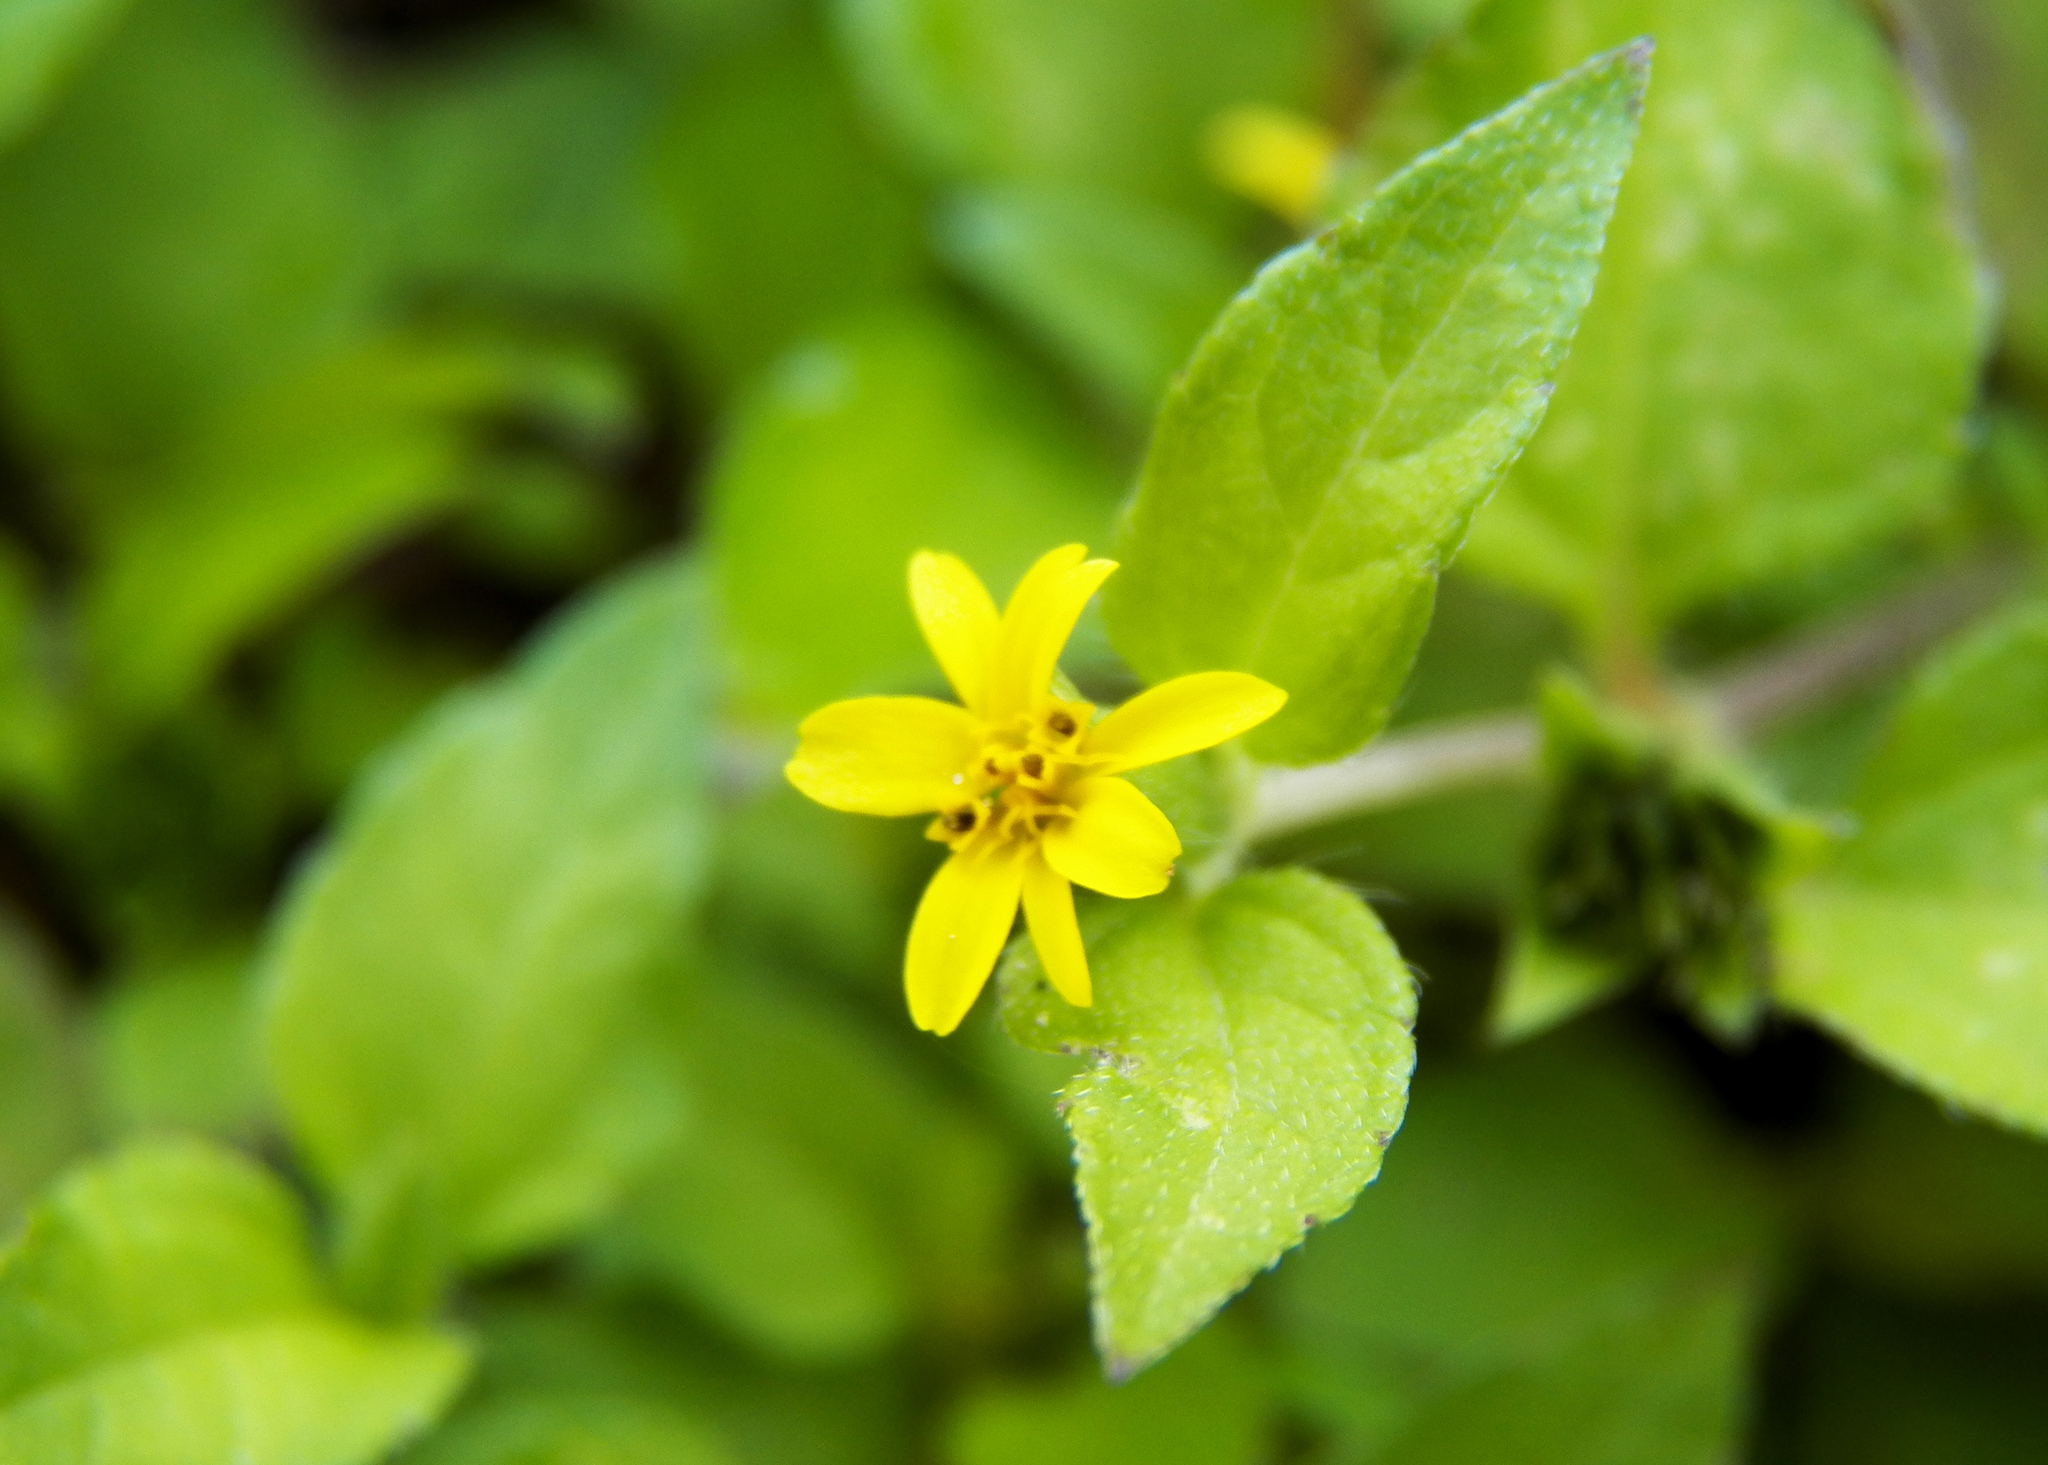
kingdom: Plantae
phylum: Tracheophyta
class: Magnoliopsida
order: Asterales
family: Asteraceae
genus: Calyptocarpus
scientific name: Calyptocarpus vialis
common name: Straggler daisy
